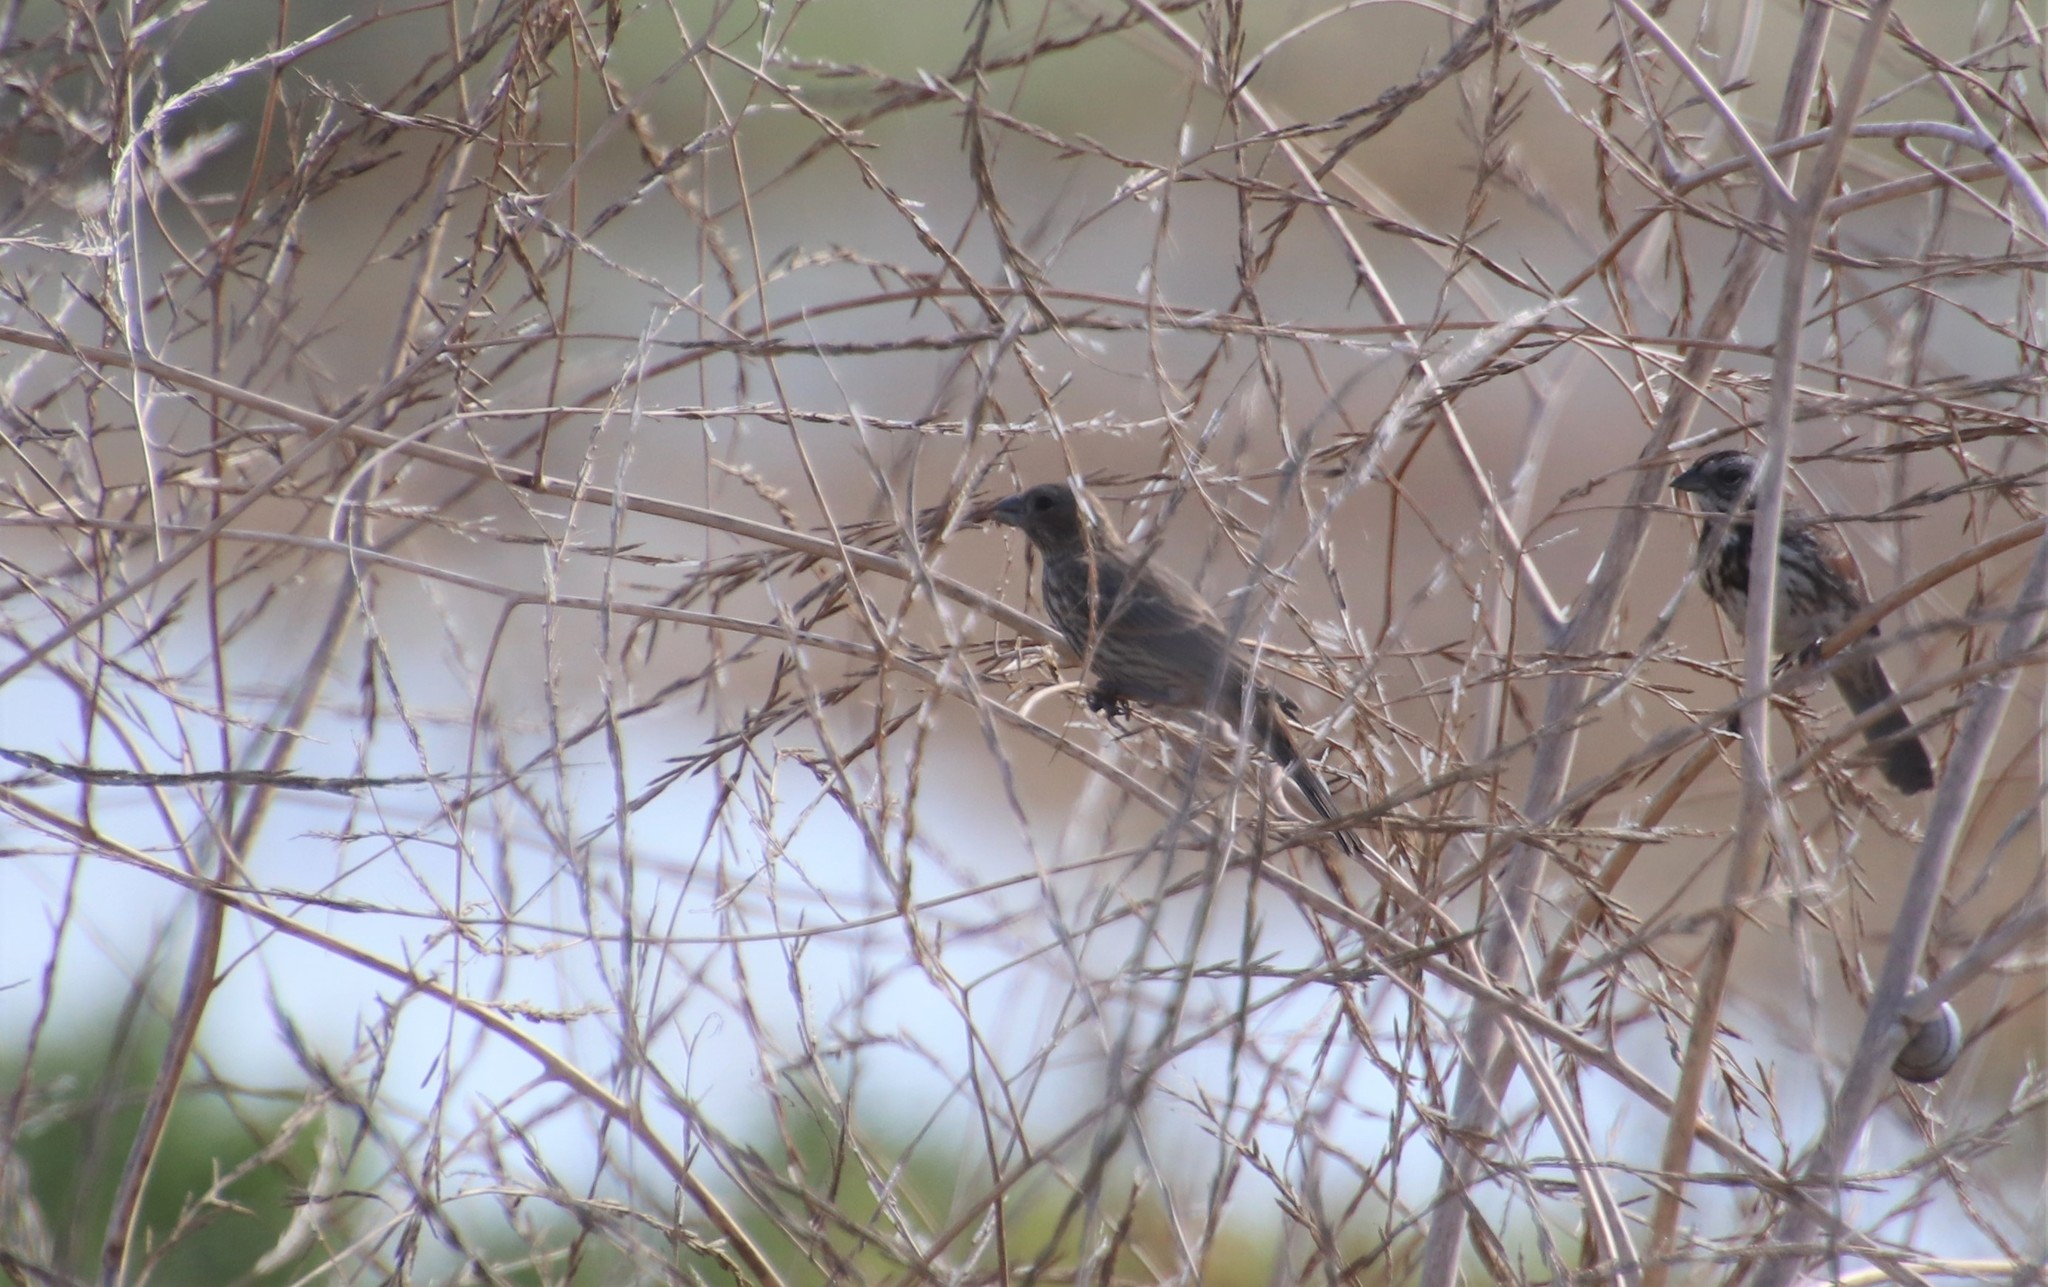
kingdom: Animalia
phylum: Chordata
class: Aves
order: Passeriformes
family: Fringillidae
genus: Haemorhous
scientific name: Haemorhous mexicanus
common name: House finch
